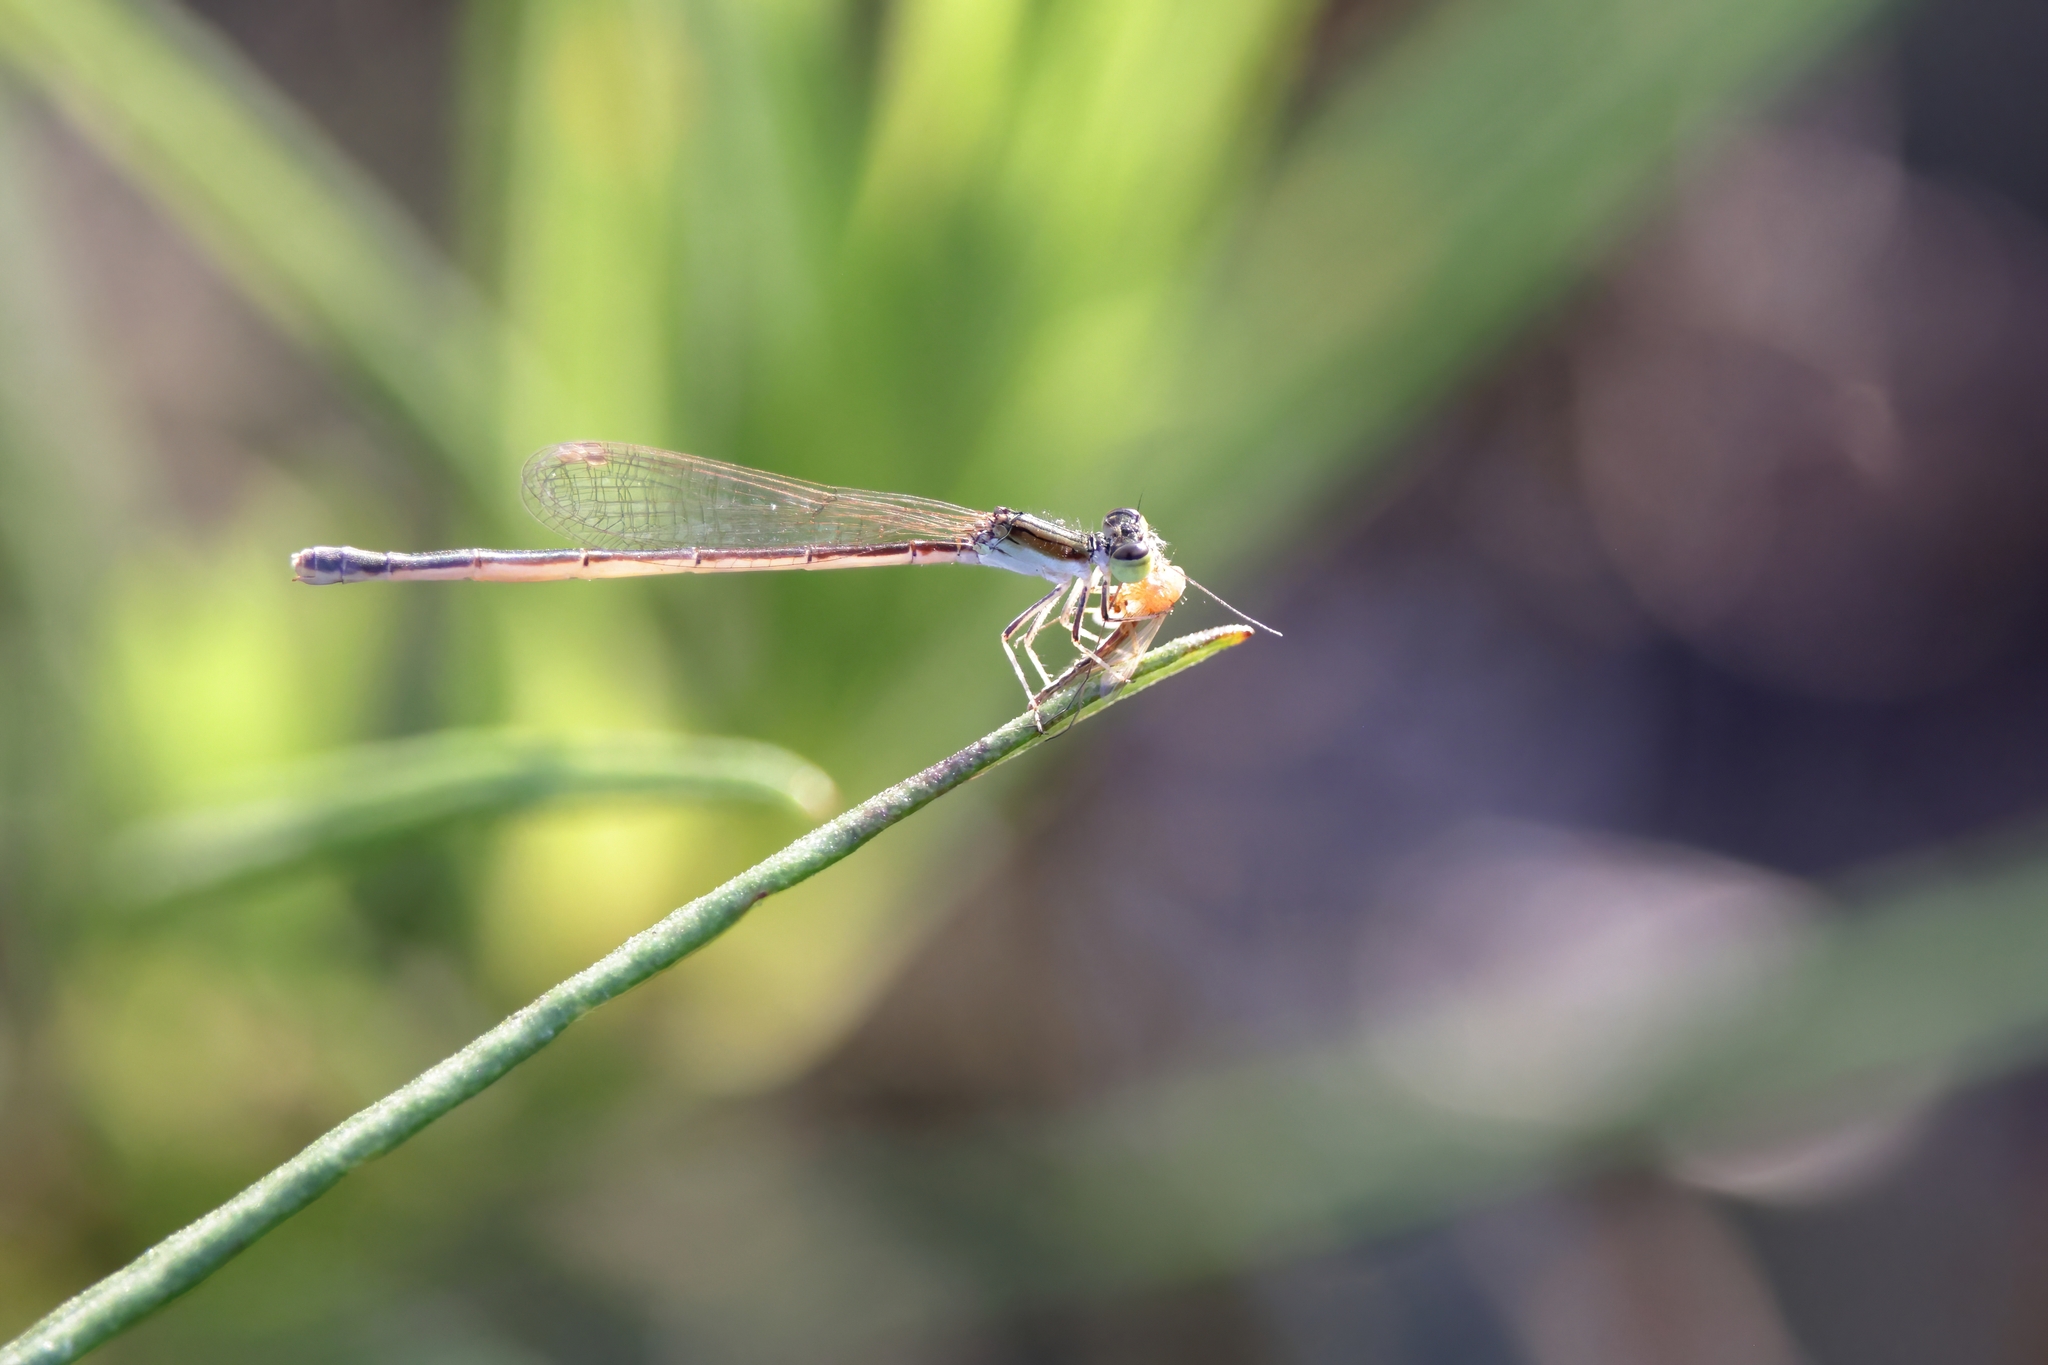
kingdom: Animalia
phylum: Arthropoda
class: Insecta
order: Odonata
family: Coenagrionidae
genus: Ischnura
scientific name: Ischnura hastata
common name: Citrine forktail
